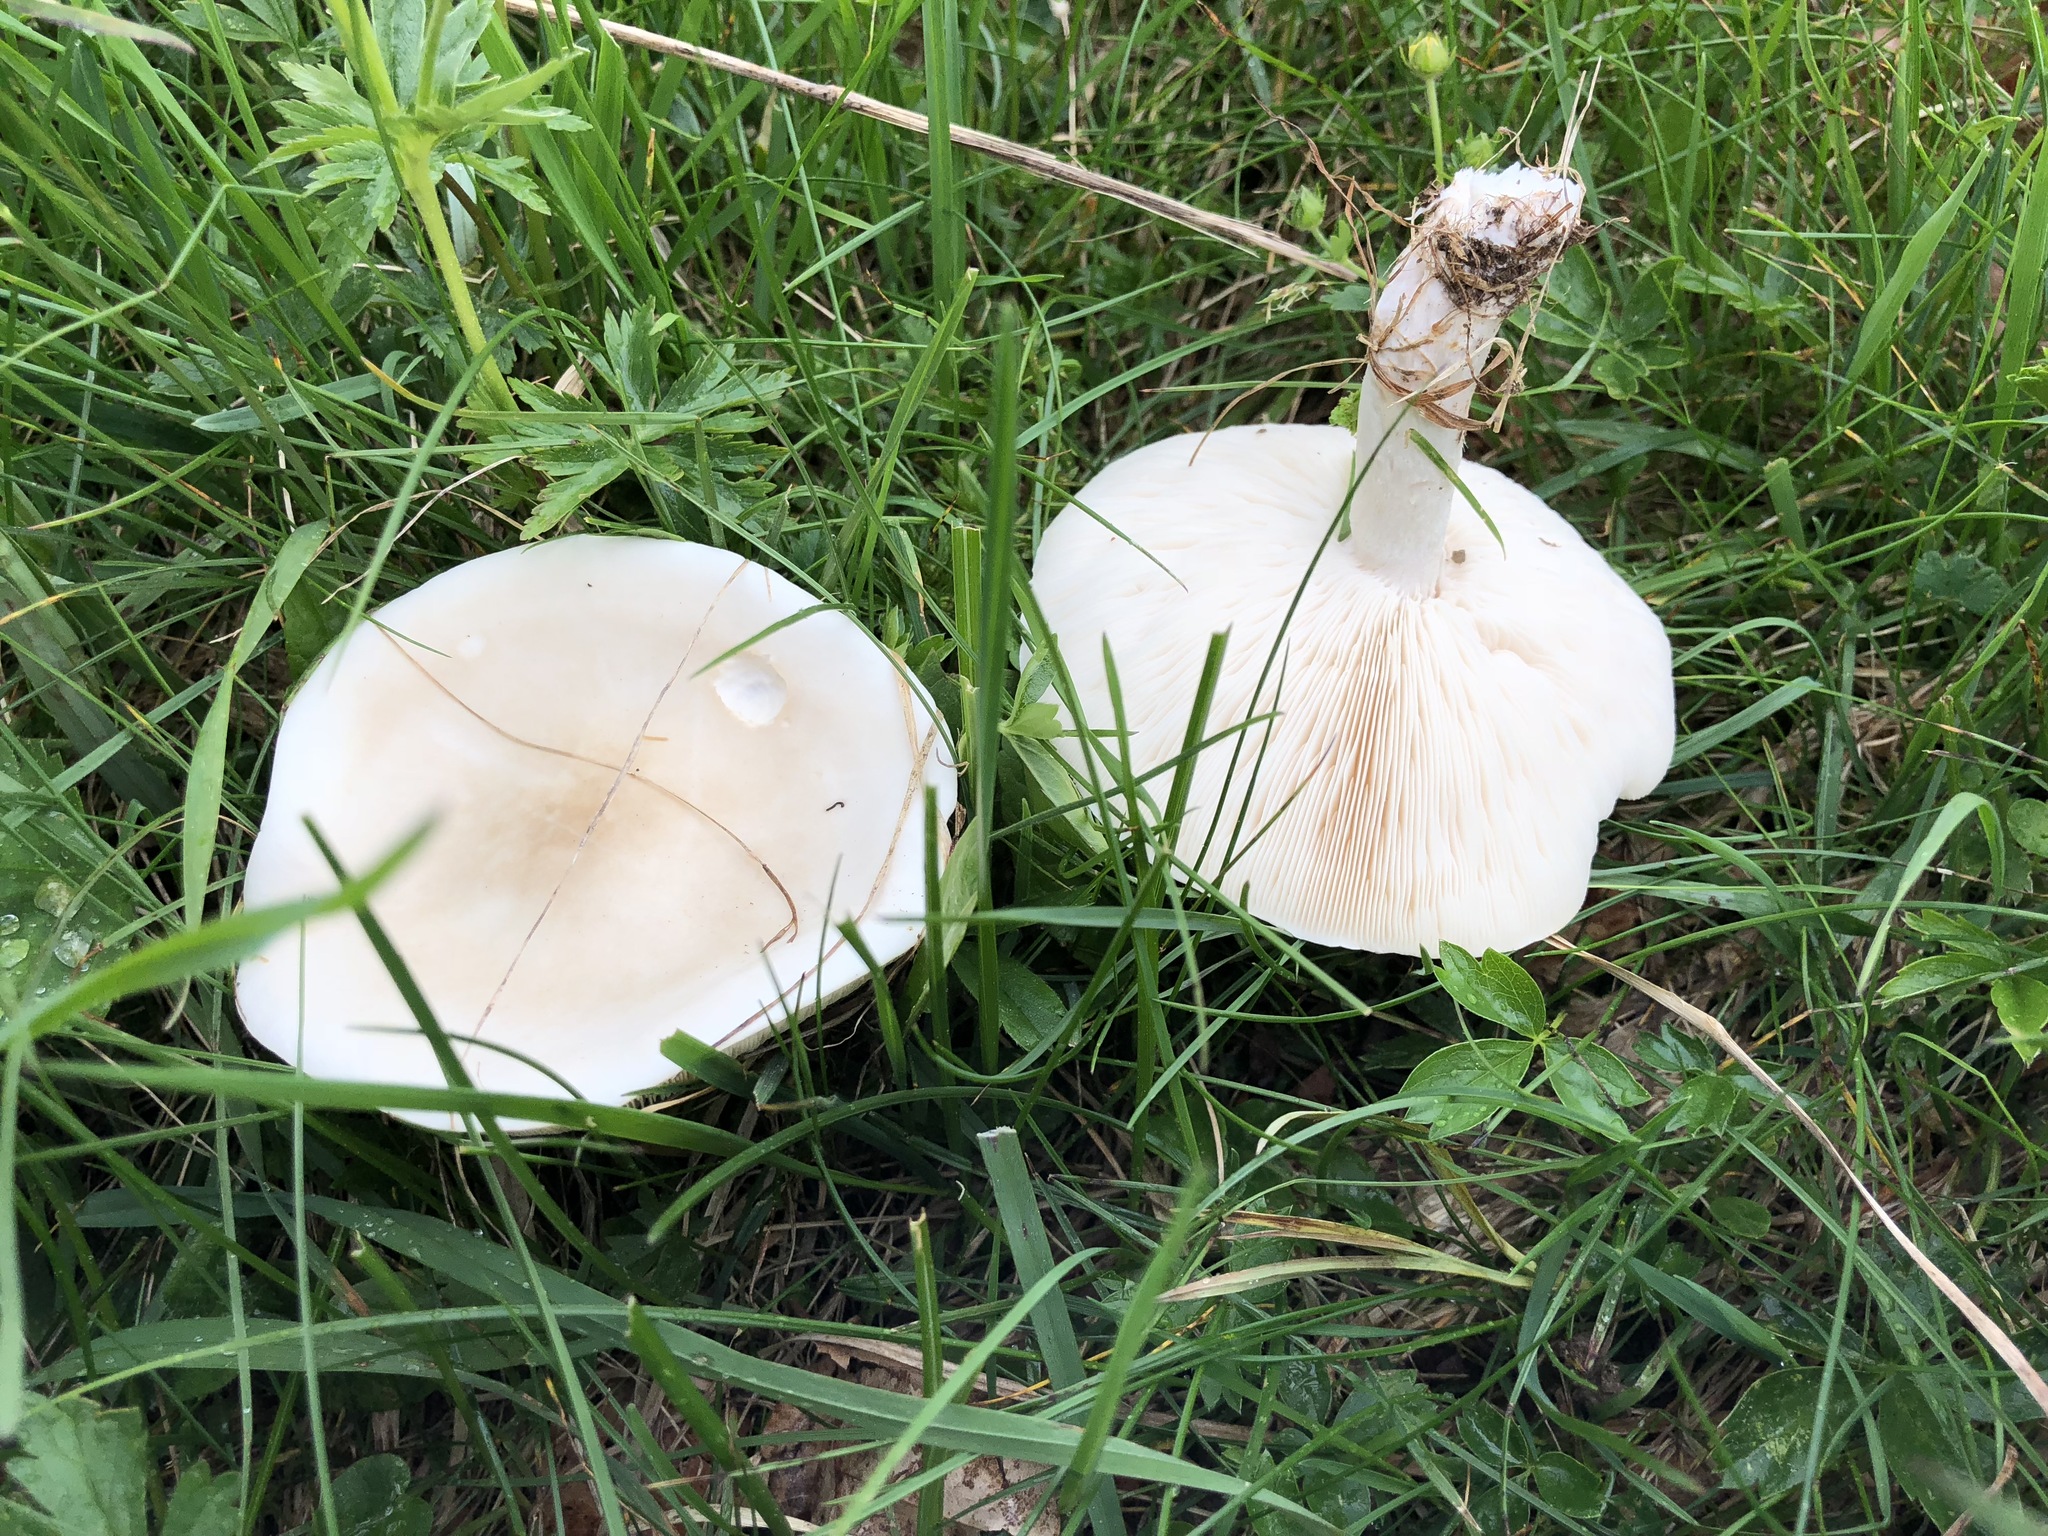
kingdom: Fungi
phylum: Basidiomycota
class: Agaricomycetes
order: Agaricales
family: Tricholomataceae
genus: Melanoleuca
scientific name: Melanoleuca strictipes
